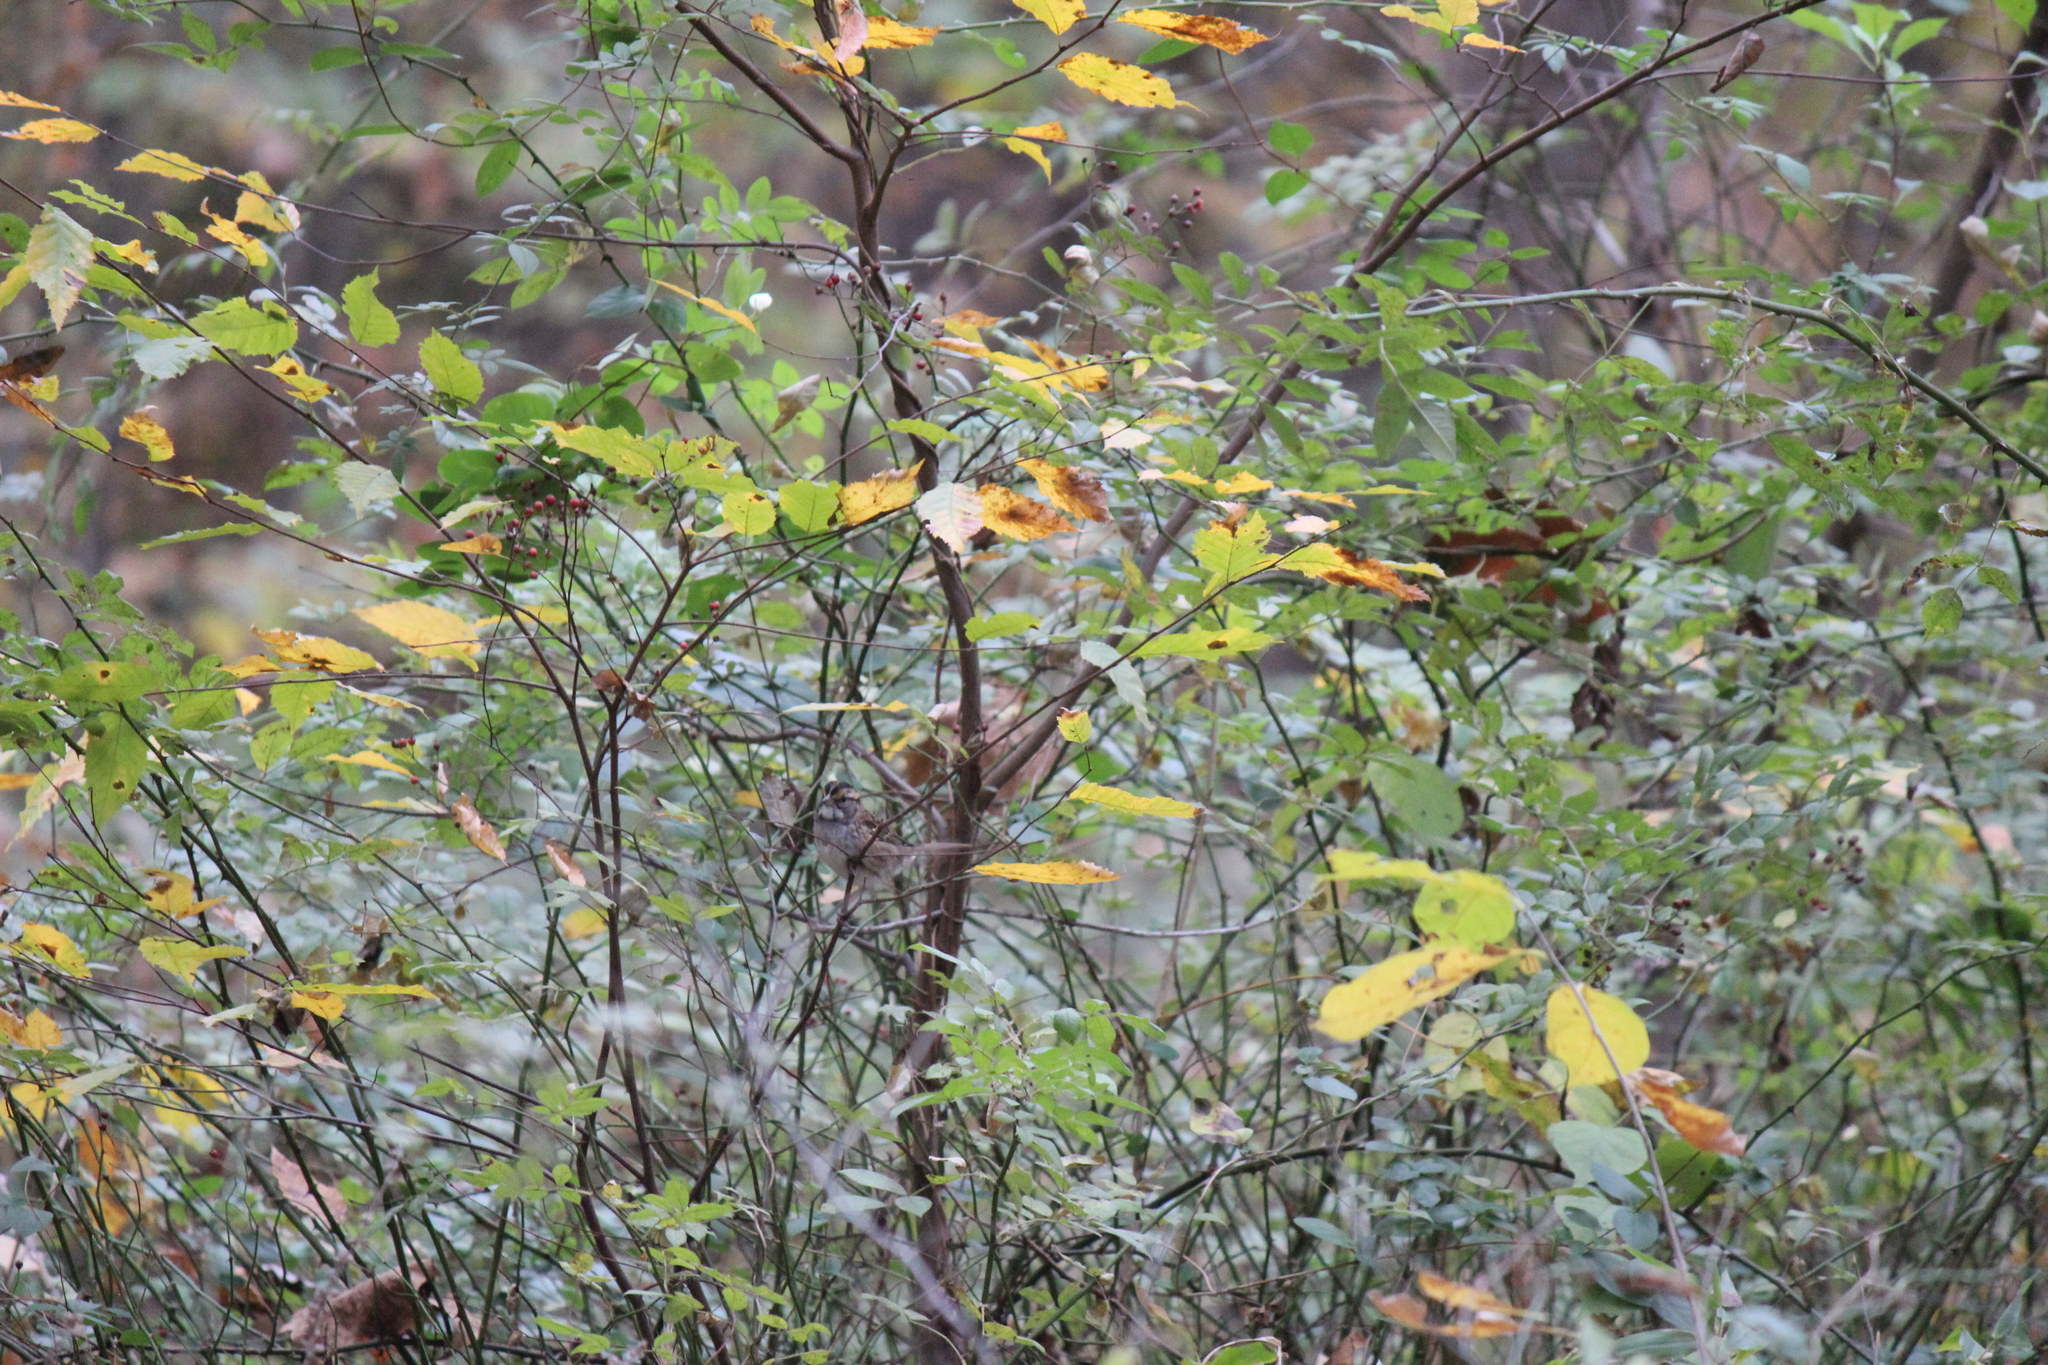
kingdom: Animalia
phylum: Chordata
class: Aves
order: Passeriformes
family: Passerellidae
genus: Zonotrichia
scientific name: Zonotrichia albicollis
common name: White-throated sparrow
